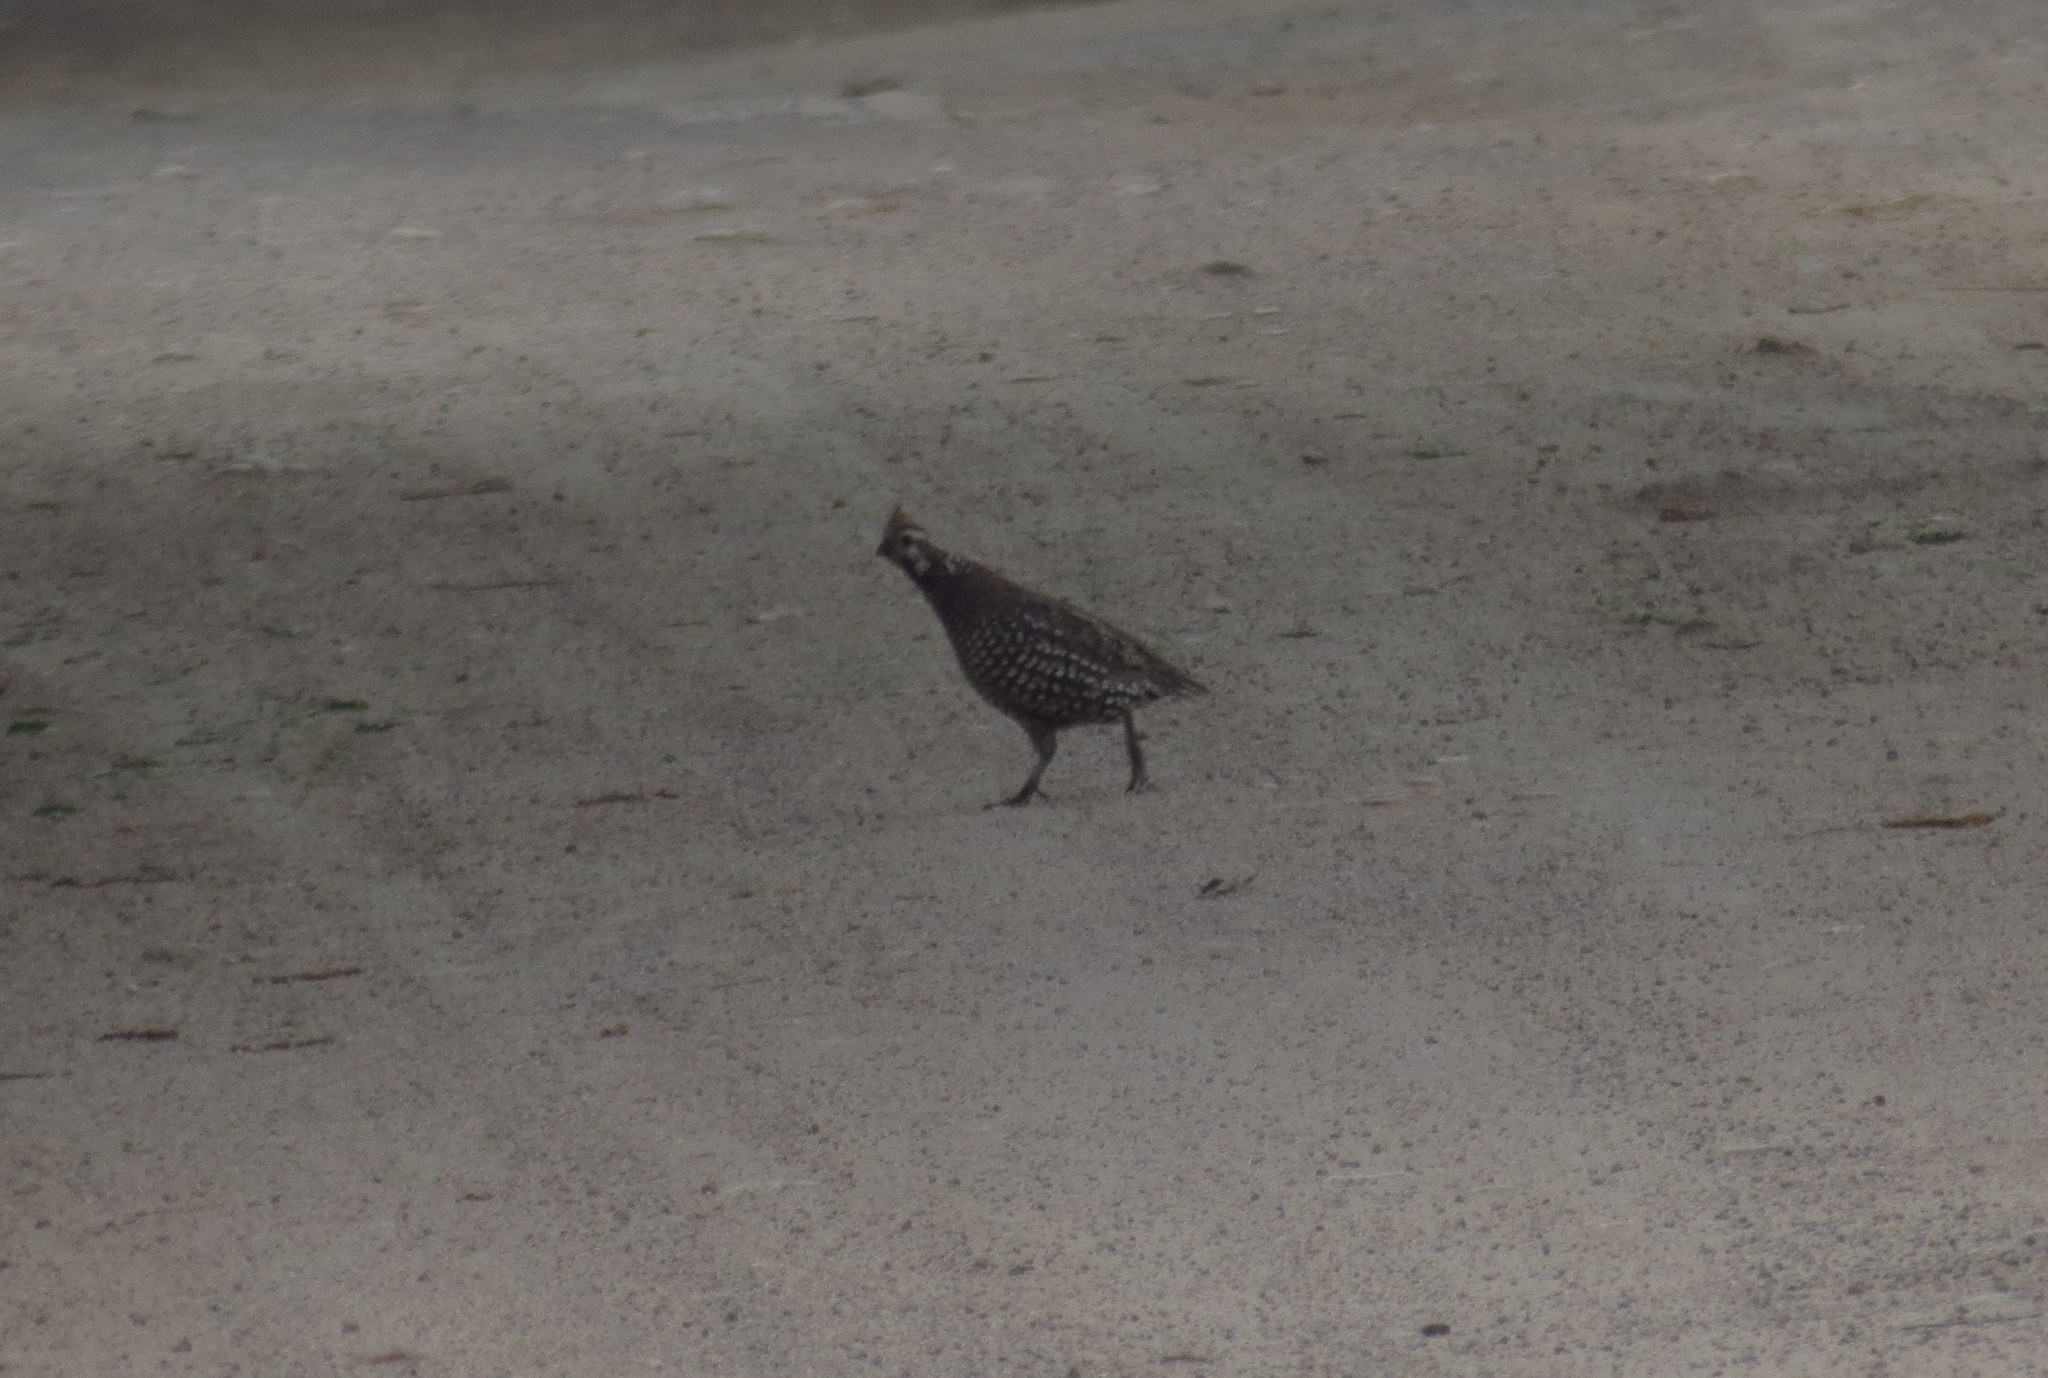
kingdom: Animalia
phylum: Chordata
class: Aves
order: Galliformes
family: Odontophoridae
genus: Colinus
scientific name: Colinus cristatus
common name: Crested bobwhite
